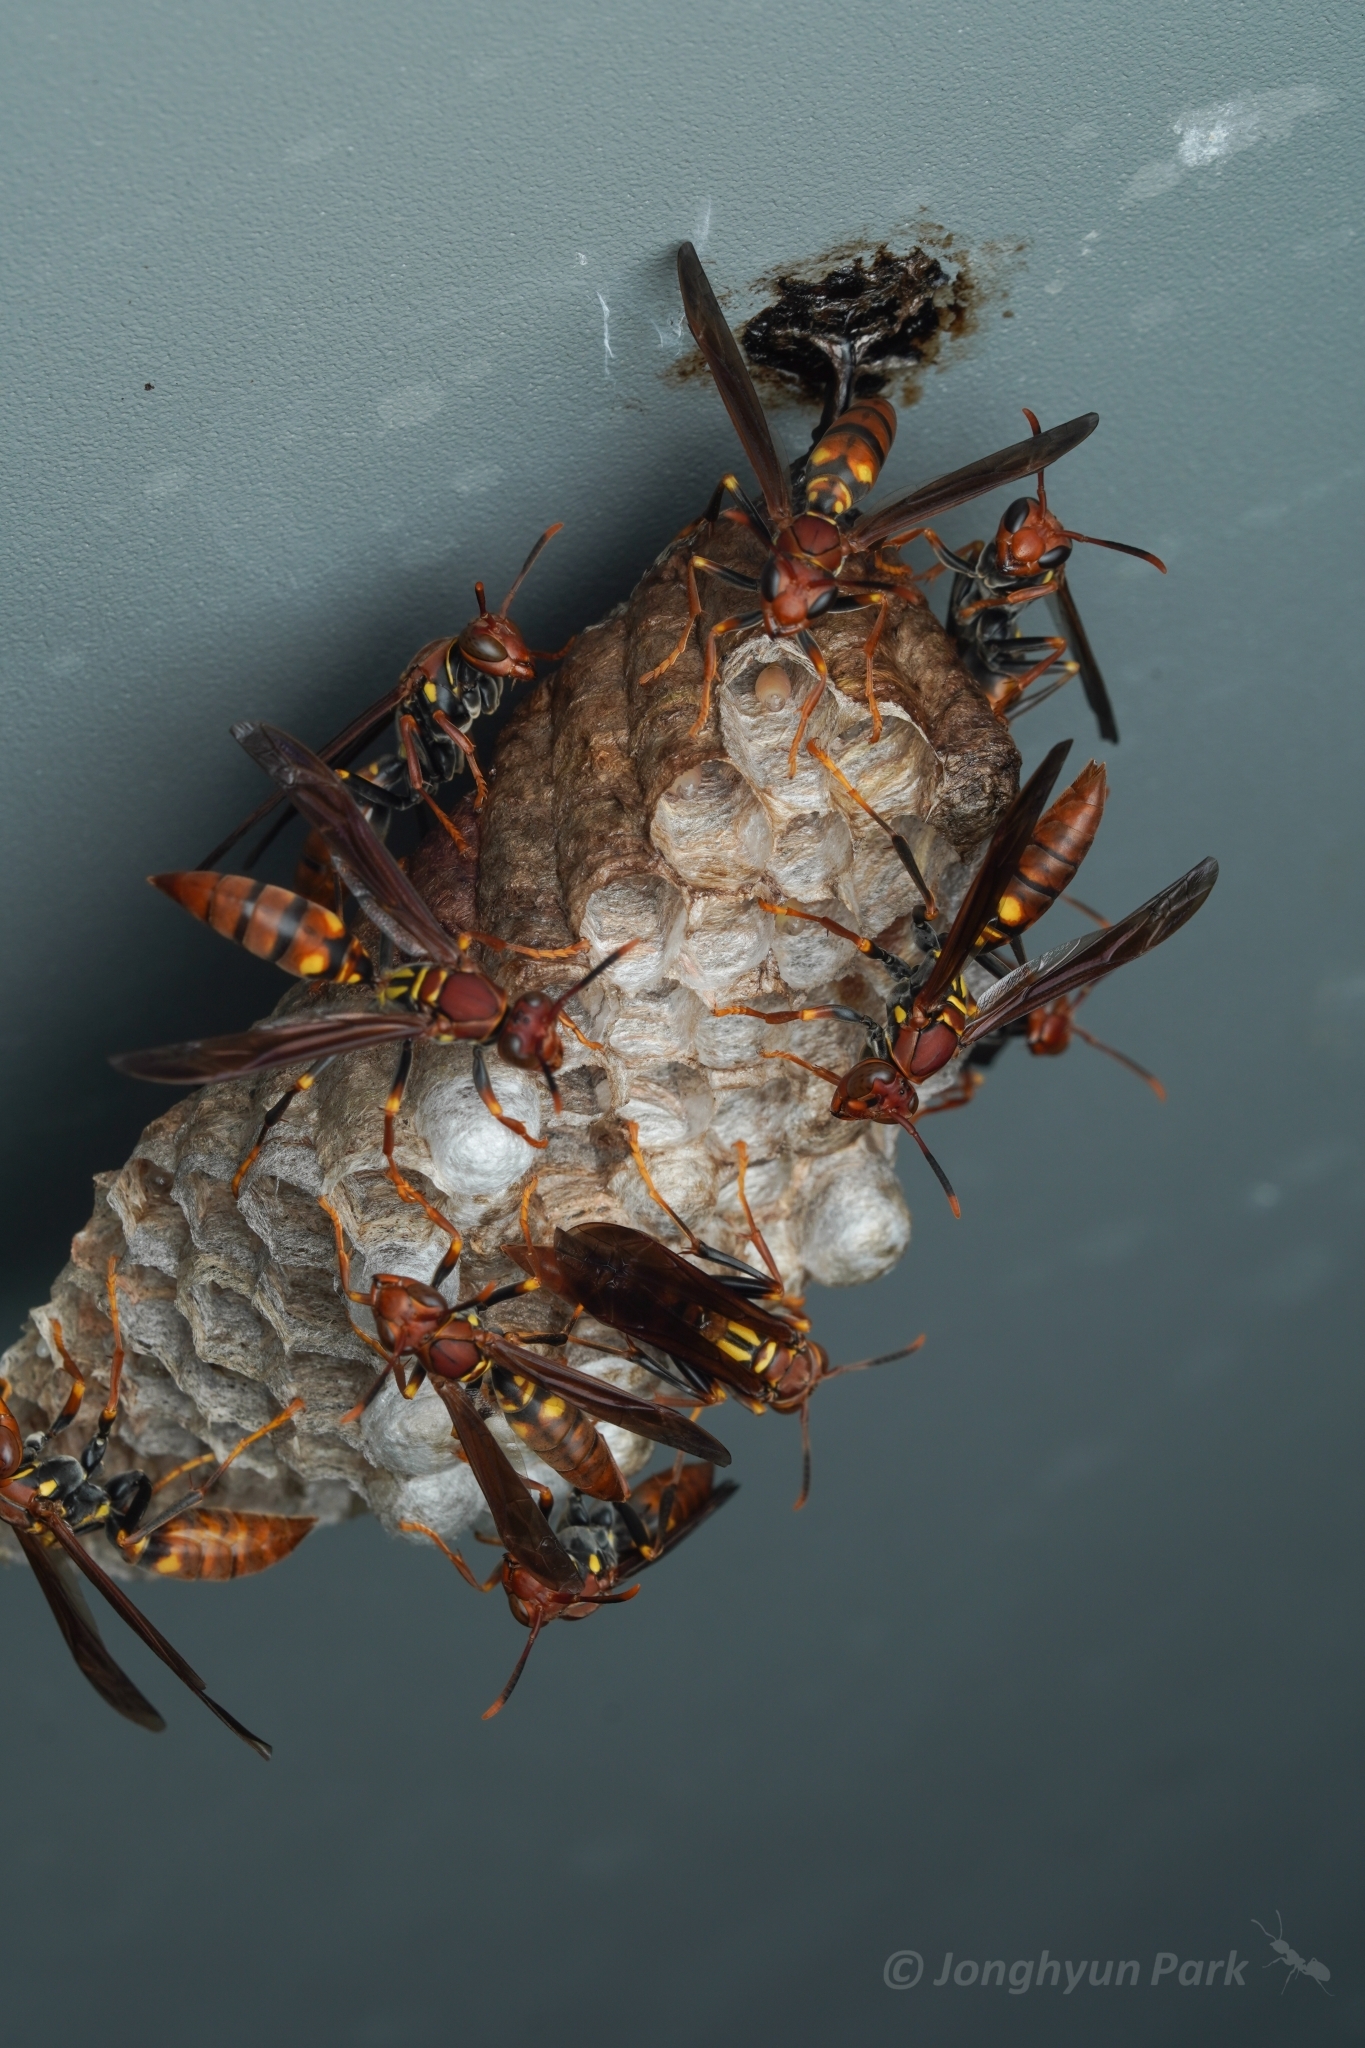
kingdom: Animalia
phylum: Arthropoda
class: Insecta
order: Hymenoptera
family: Eumenidae
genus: Polistes
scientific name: Polistes versicolor
